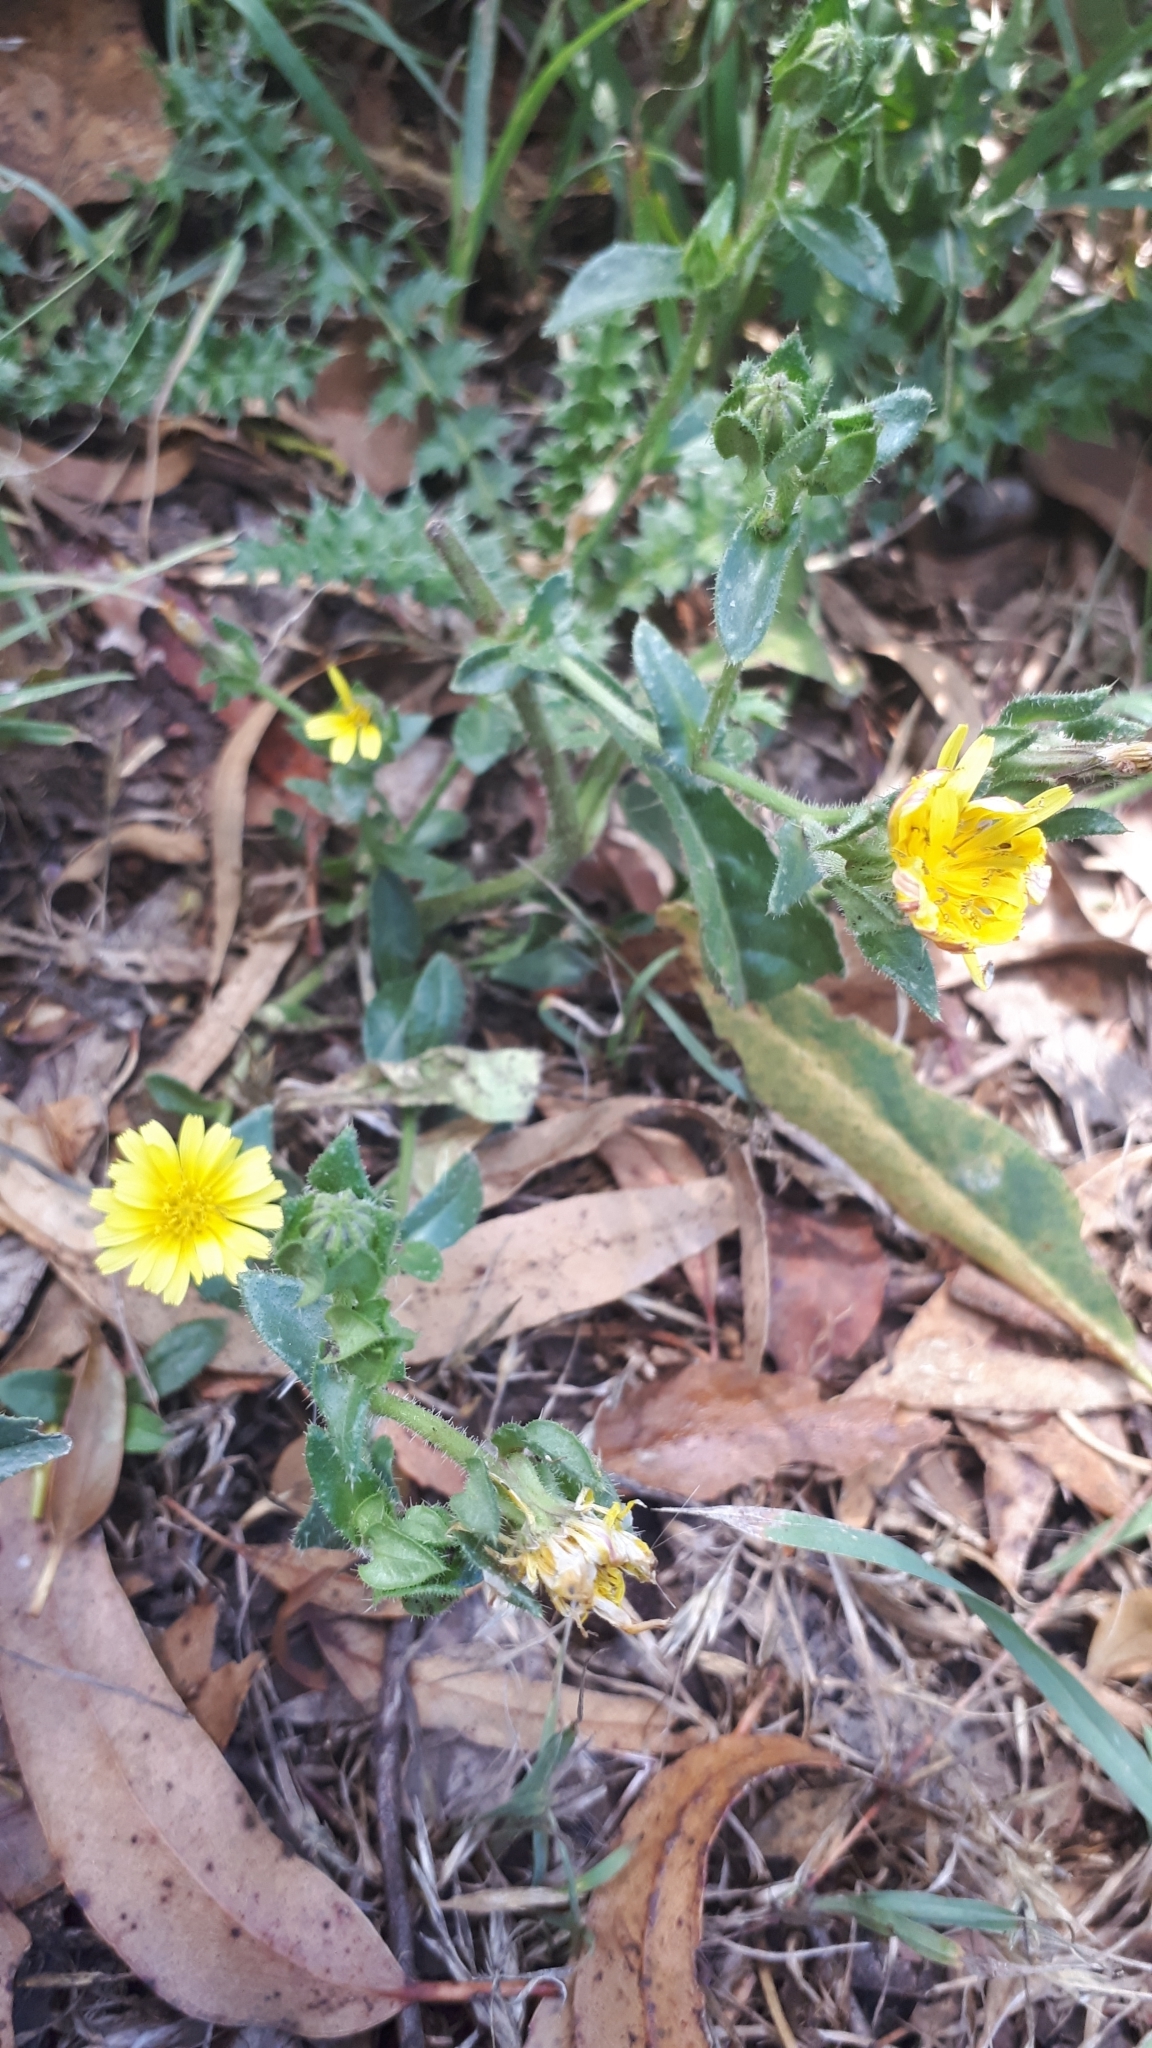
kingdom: Plantae
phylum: Tracheophyta
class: Magnoliopsida
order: Asterales
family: Asteraceae
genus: Helminthotheca
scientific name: Helminthotheca echioides
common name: Ox-tongue
